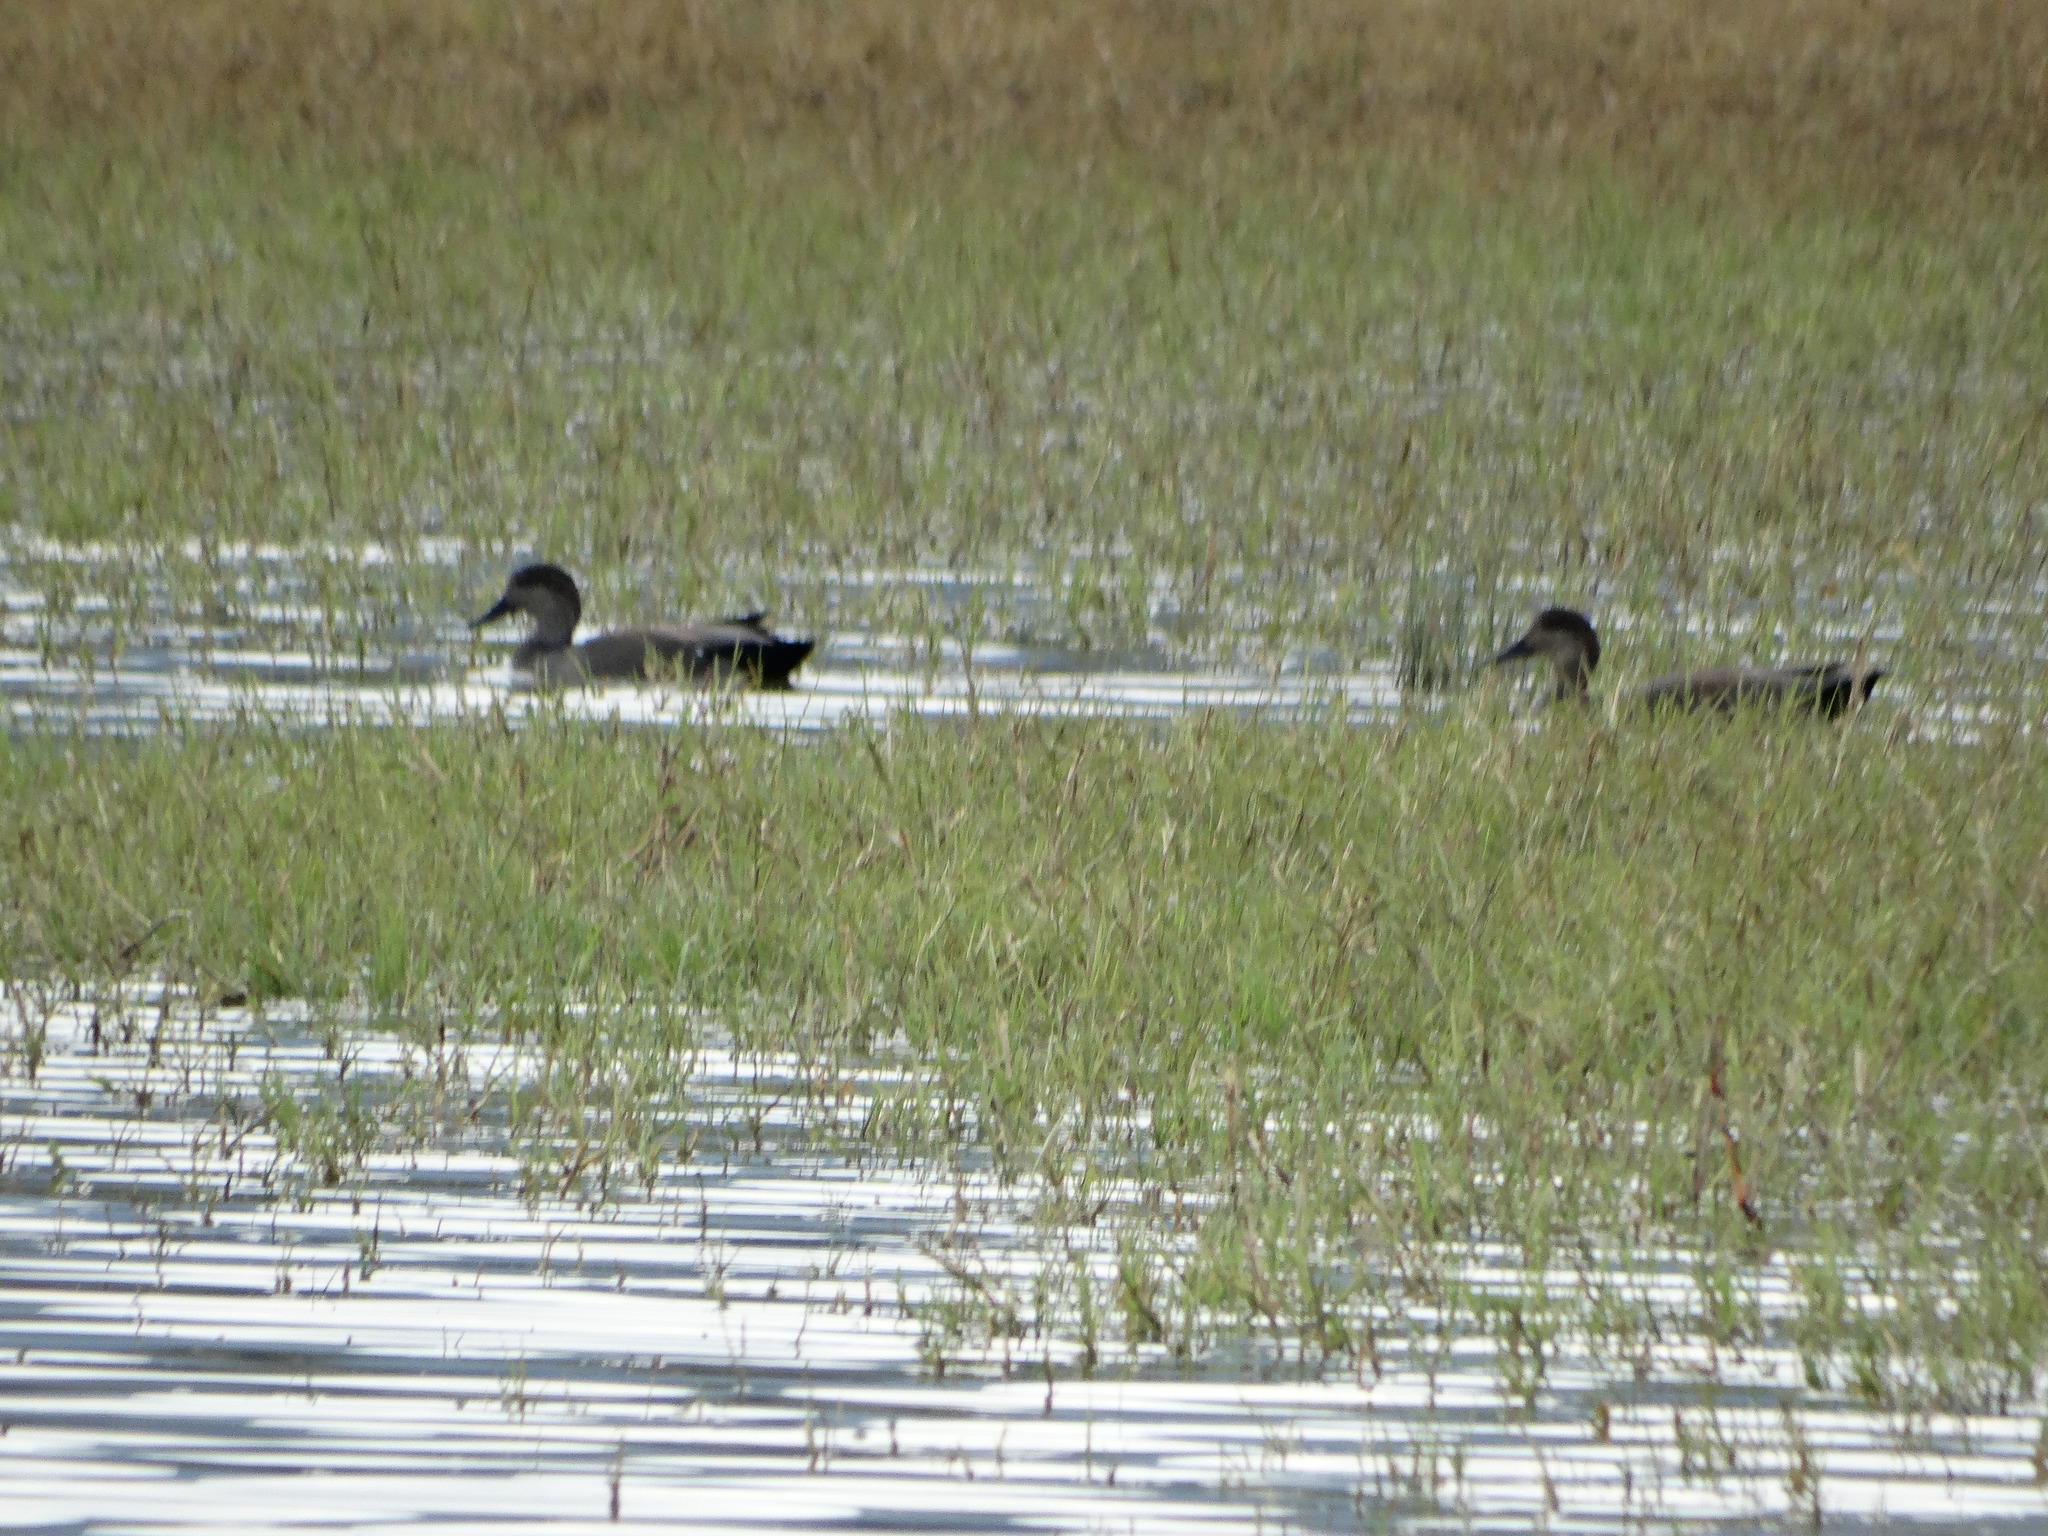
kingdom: Animalia
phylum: Chordata
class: Aves
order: Anseriformes
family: Anatidae
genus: Mareca
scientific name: Mareca strepera
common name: Gadwall
